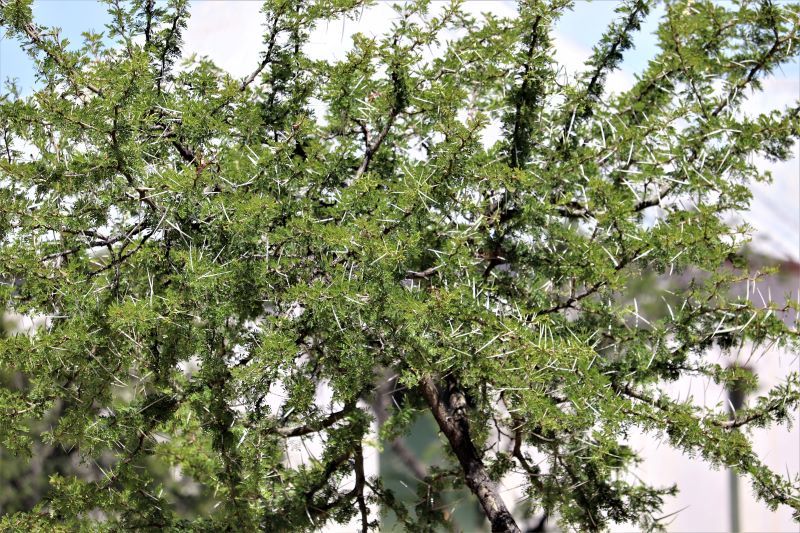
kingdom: Plantae
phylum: Tracheophyta
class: Magnoliopsida
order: Fabales
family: Fabaceae
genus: Vachellia
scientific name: Vachellia karroo
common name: Sweet thorn
